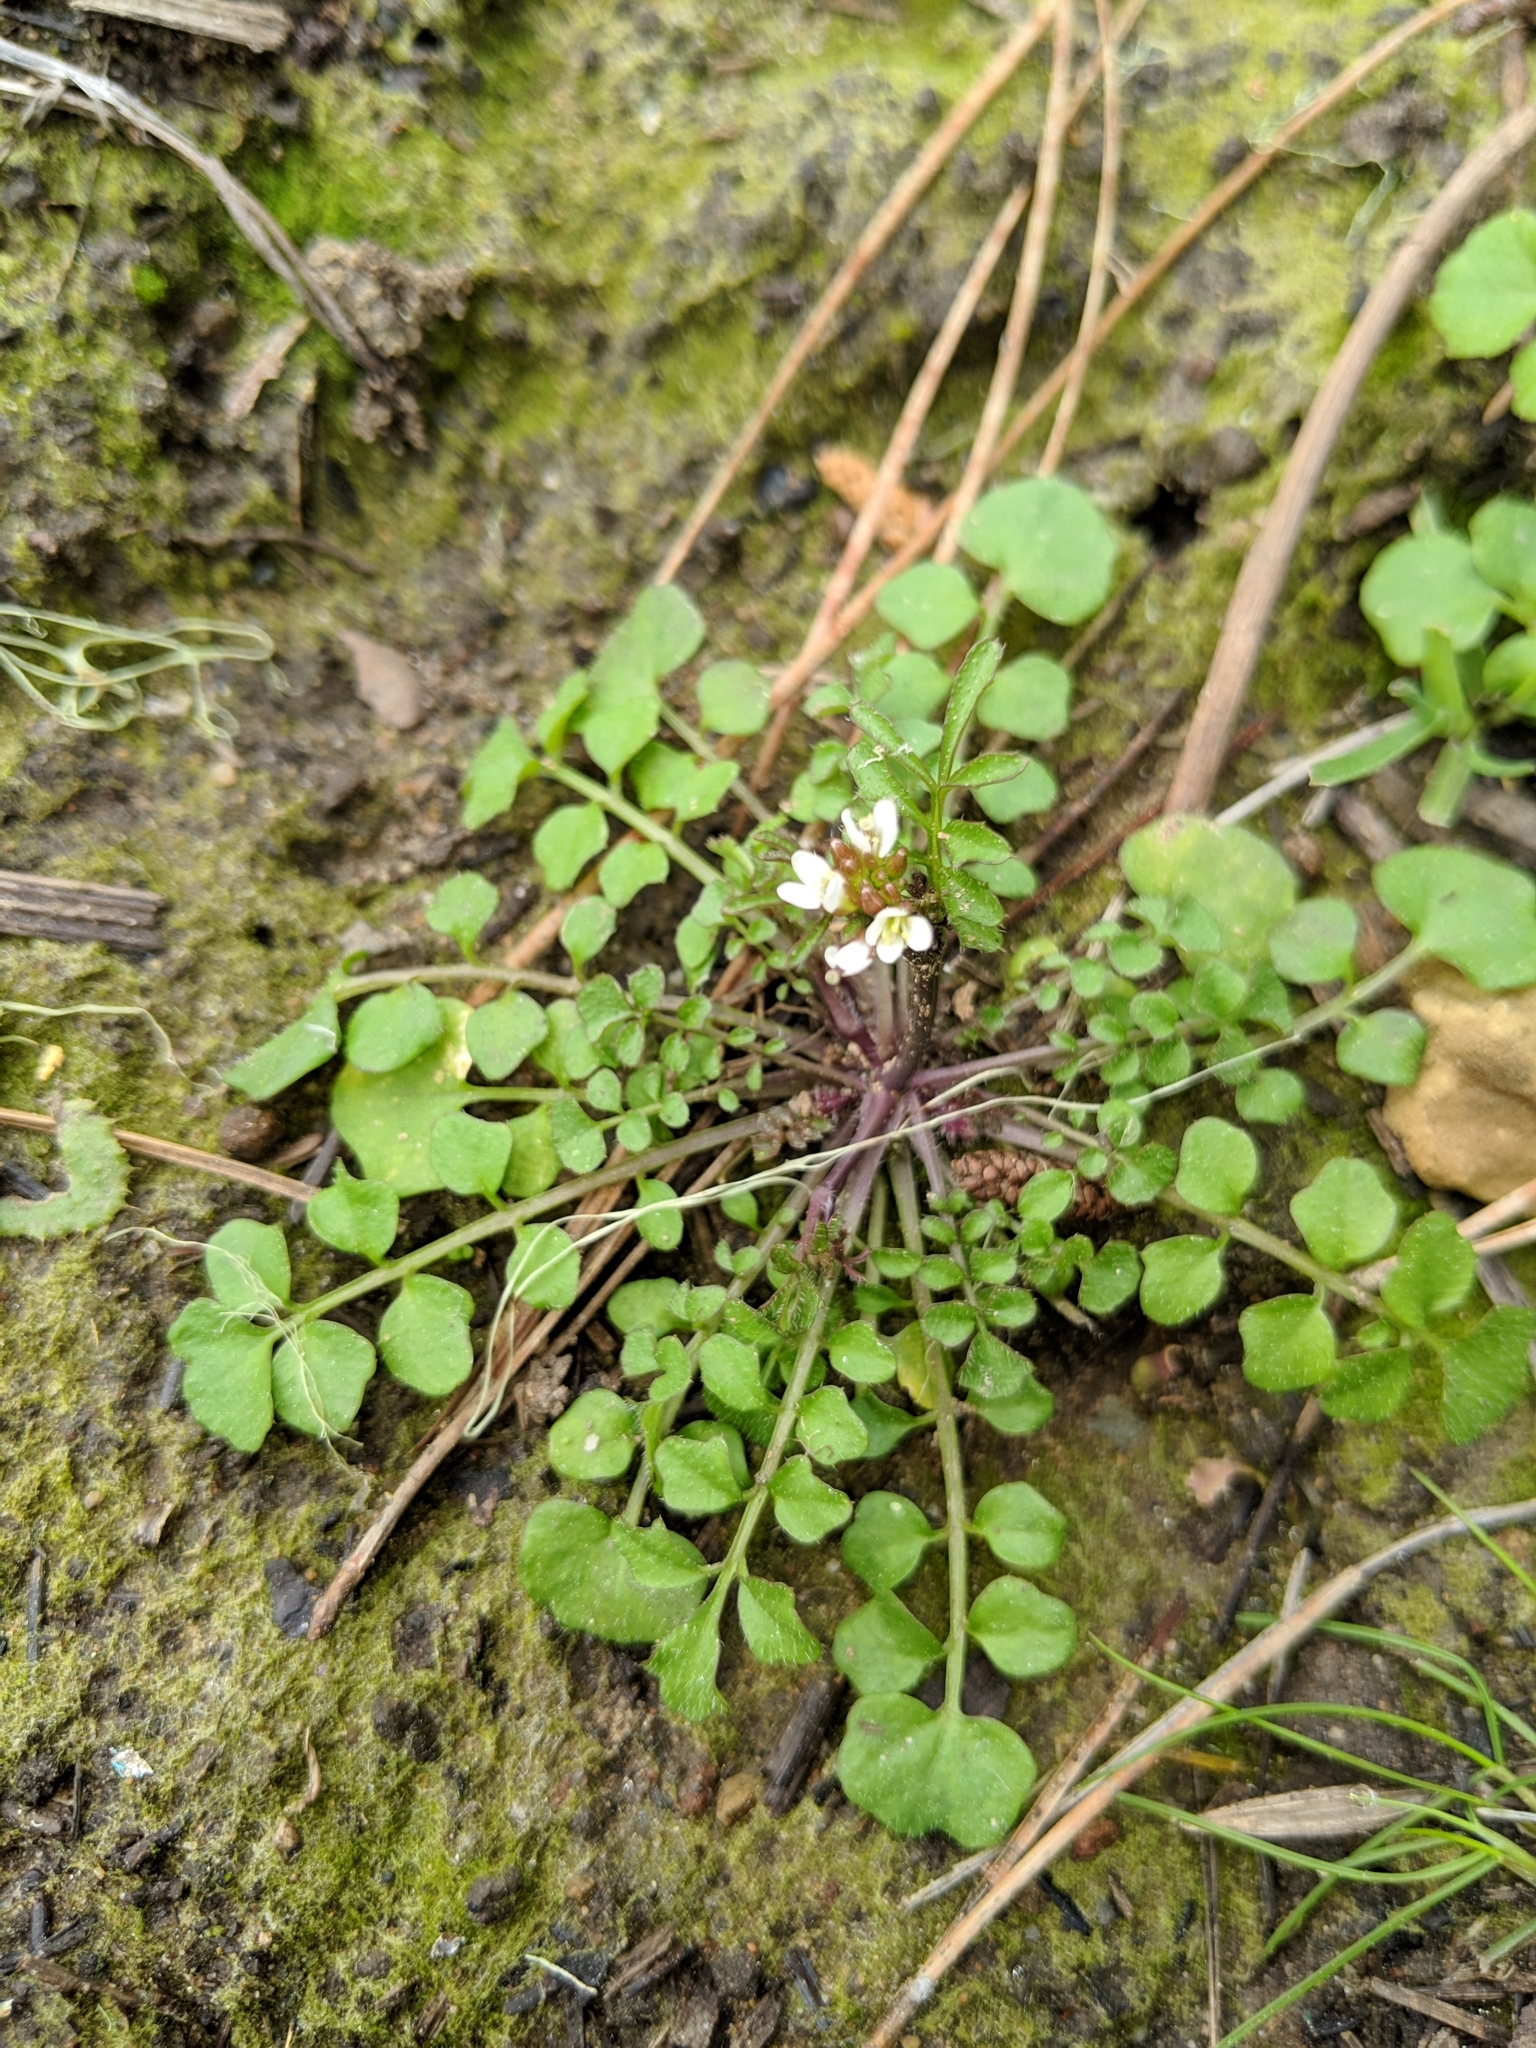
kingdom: Plantae
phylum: Tracheophyta
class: Magnoliopsida
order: Brassicales
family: Brassicaceae
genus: Cardamine
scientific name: Cardamine hirsuta
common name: Hairy bittercress
